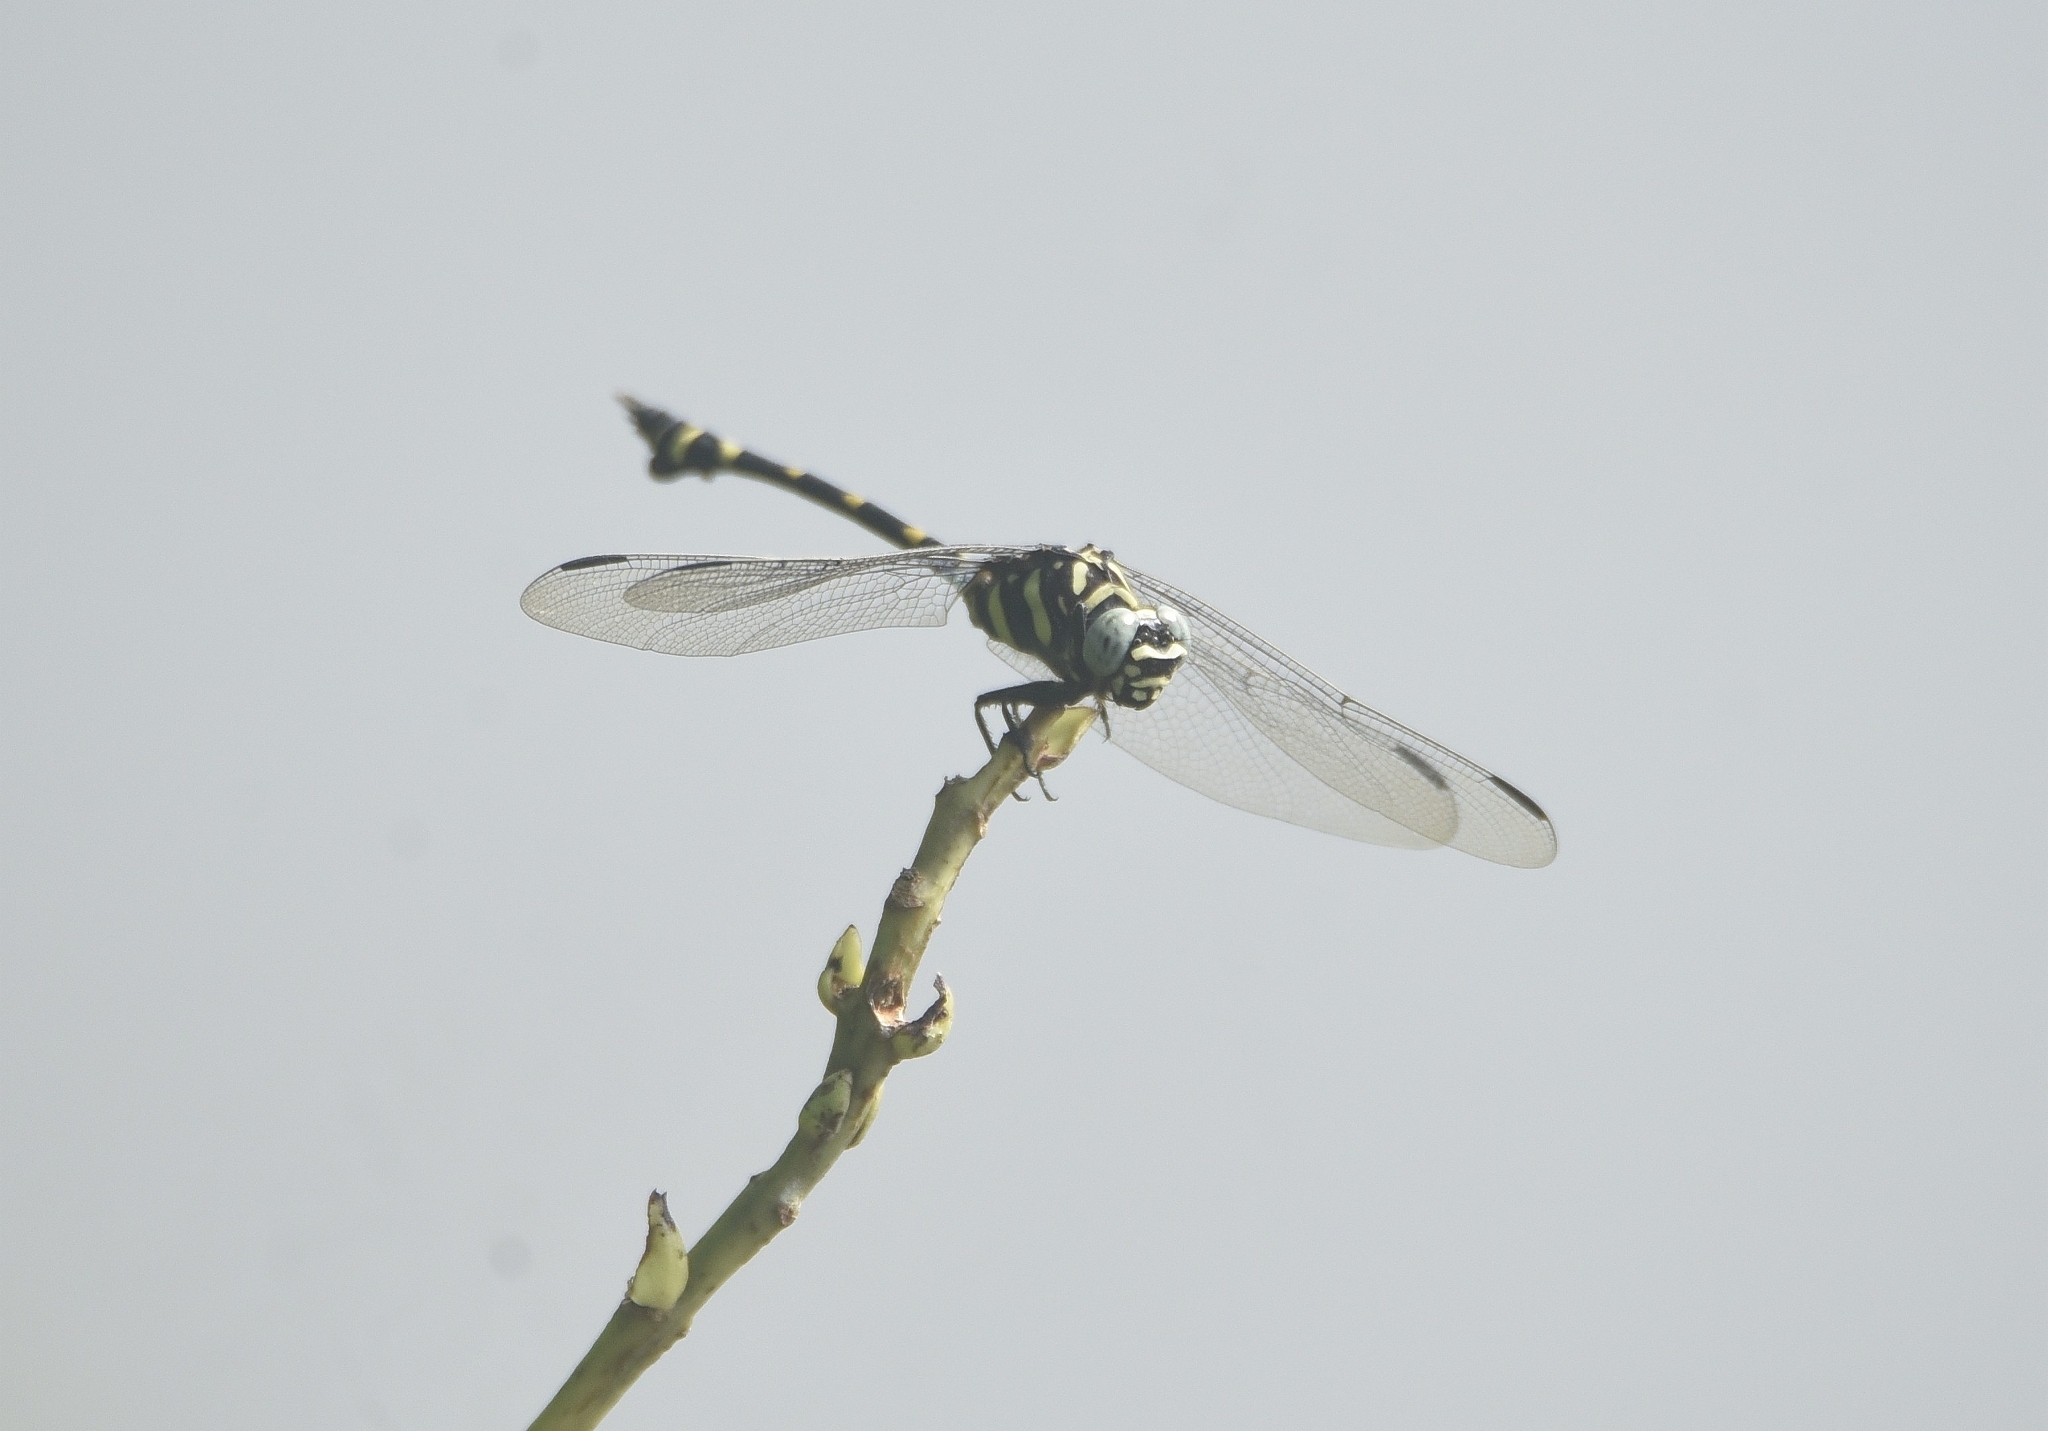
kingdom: Animalia
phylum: Arthropoda
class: Insecta
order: Odonata
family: Gomphidae
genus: Ictinogomphus
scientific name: Ictinogomphus rapax
